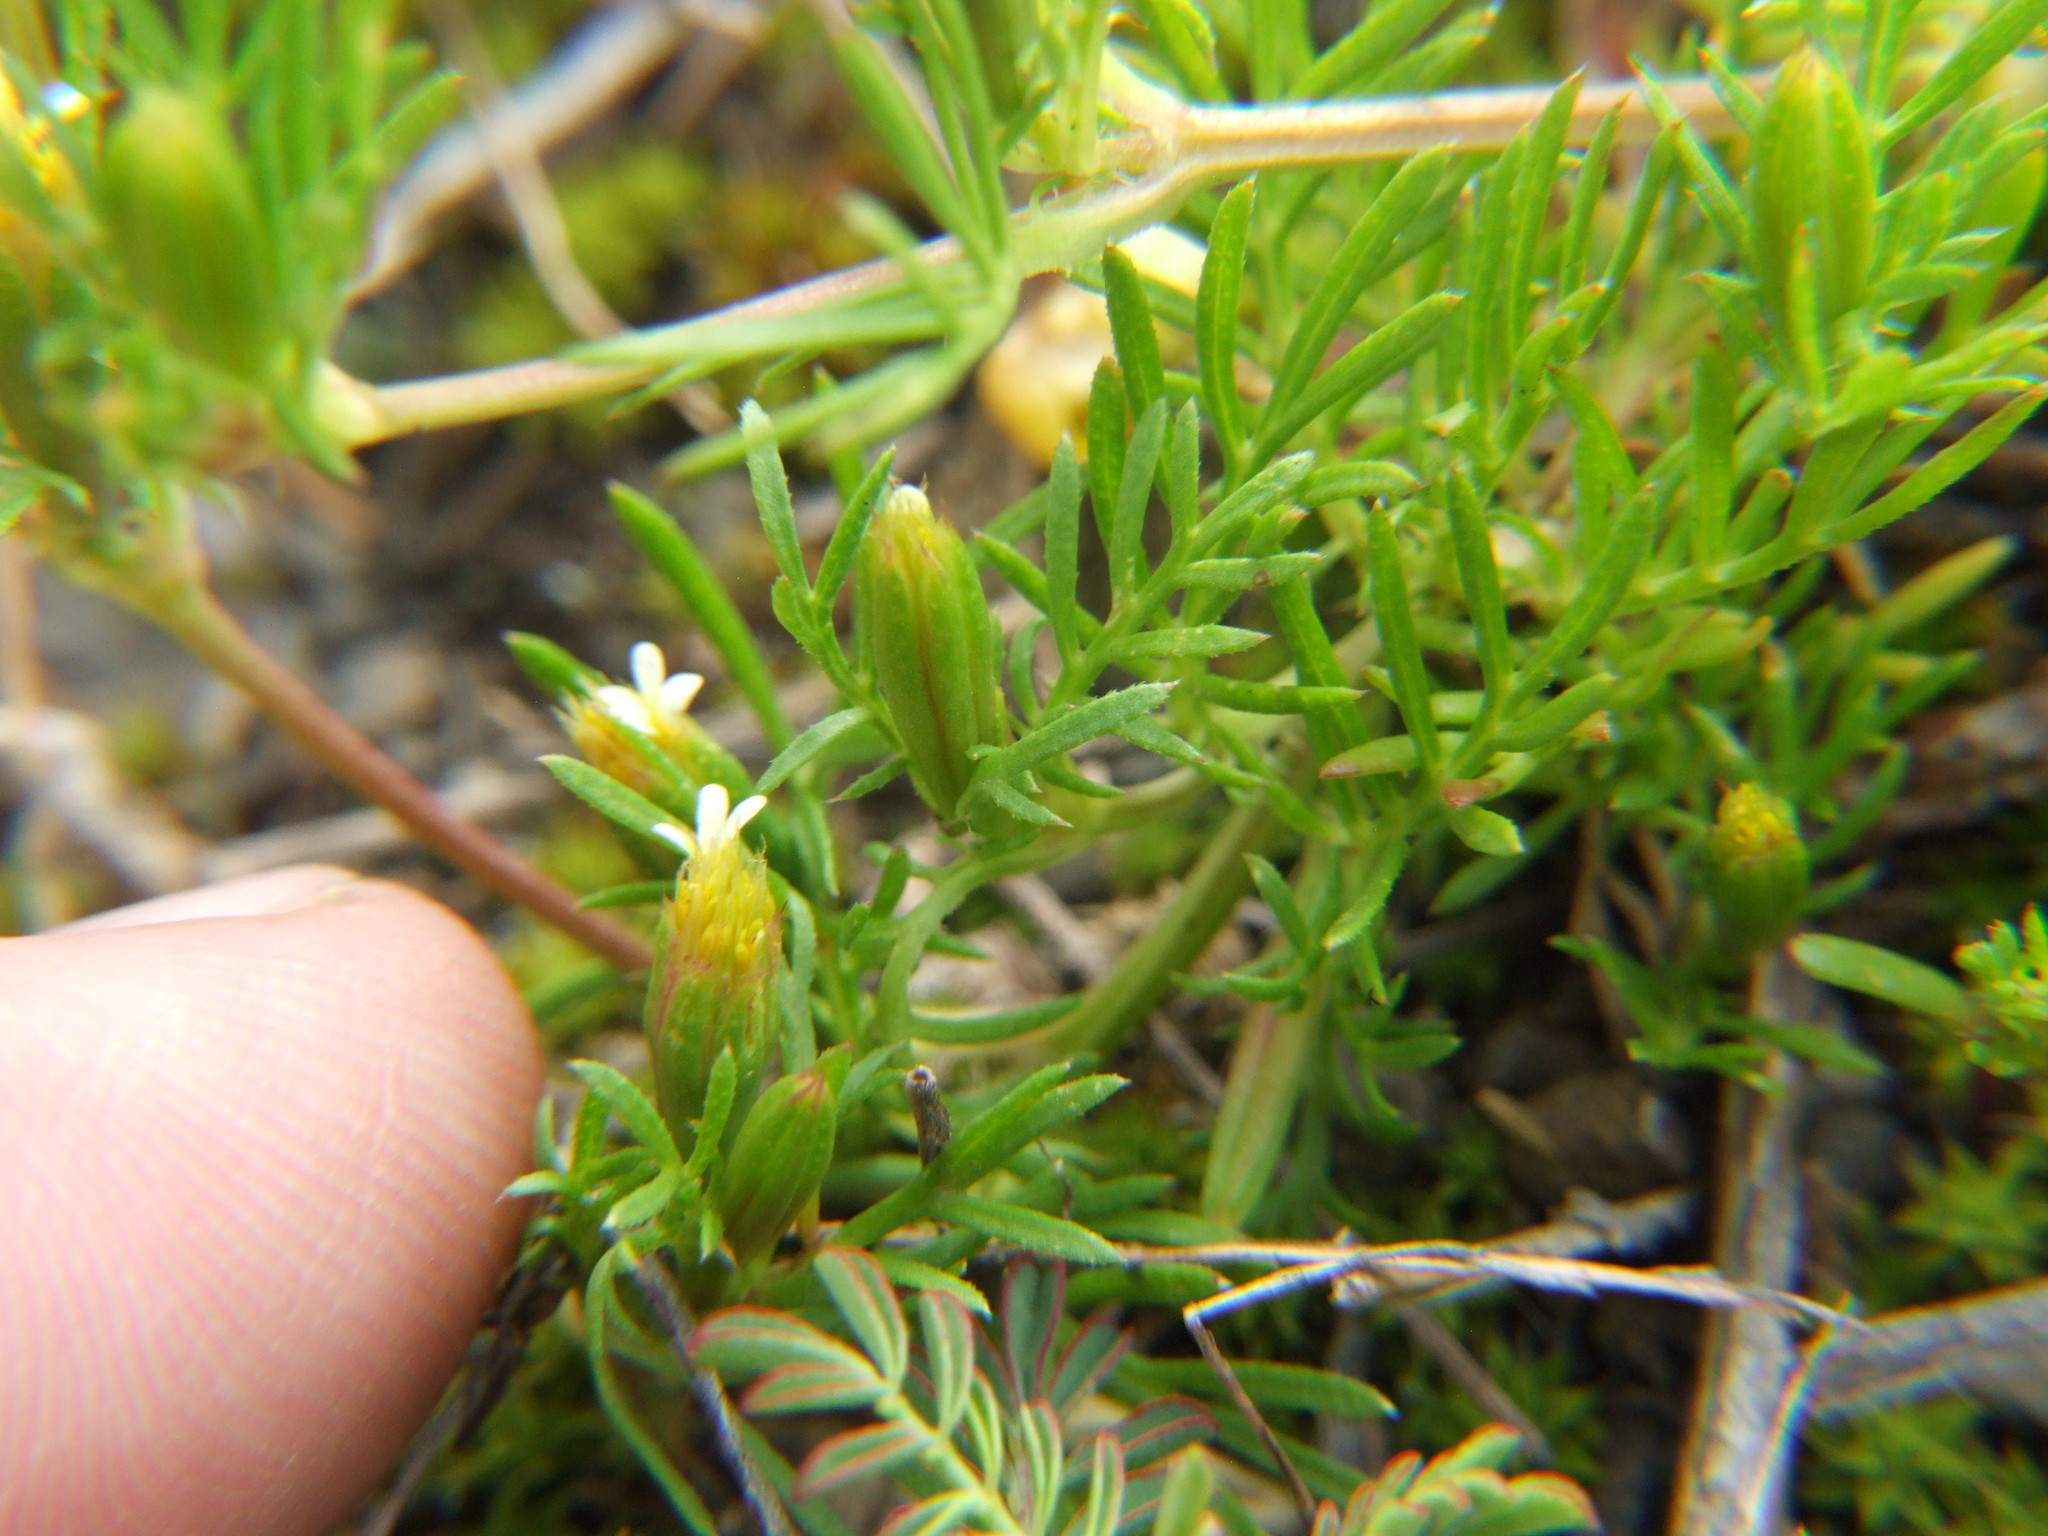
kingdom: Plantae
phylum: Tracheophyta
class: Magnoliopsida
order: Asterales
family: Asteraceae
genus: Tagetes
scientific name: Tagetes filifolia
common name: Lesser marigold
